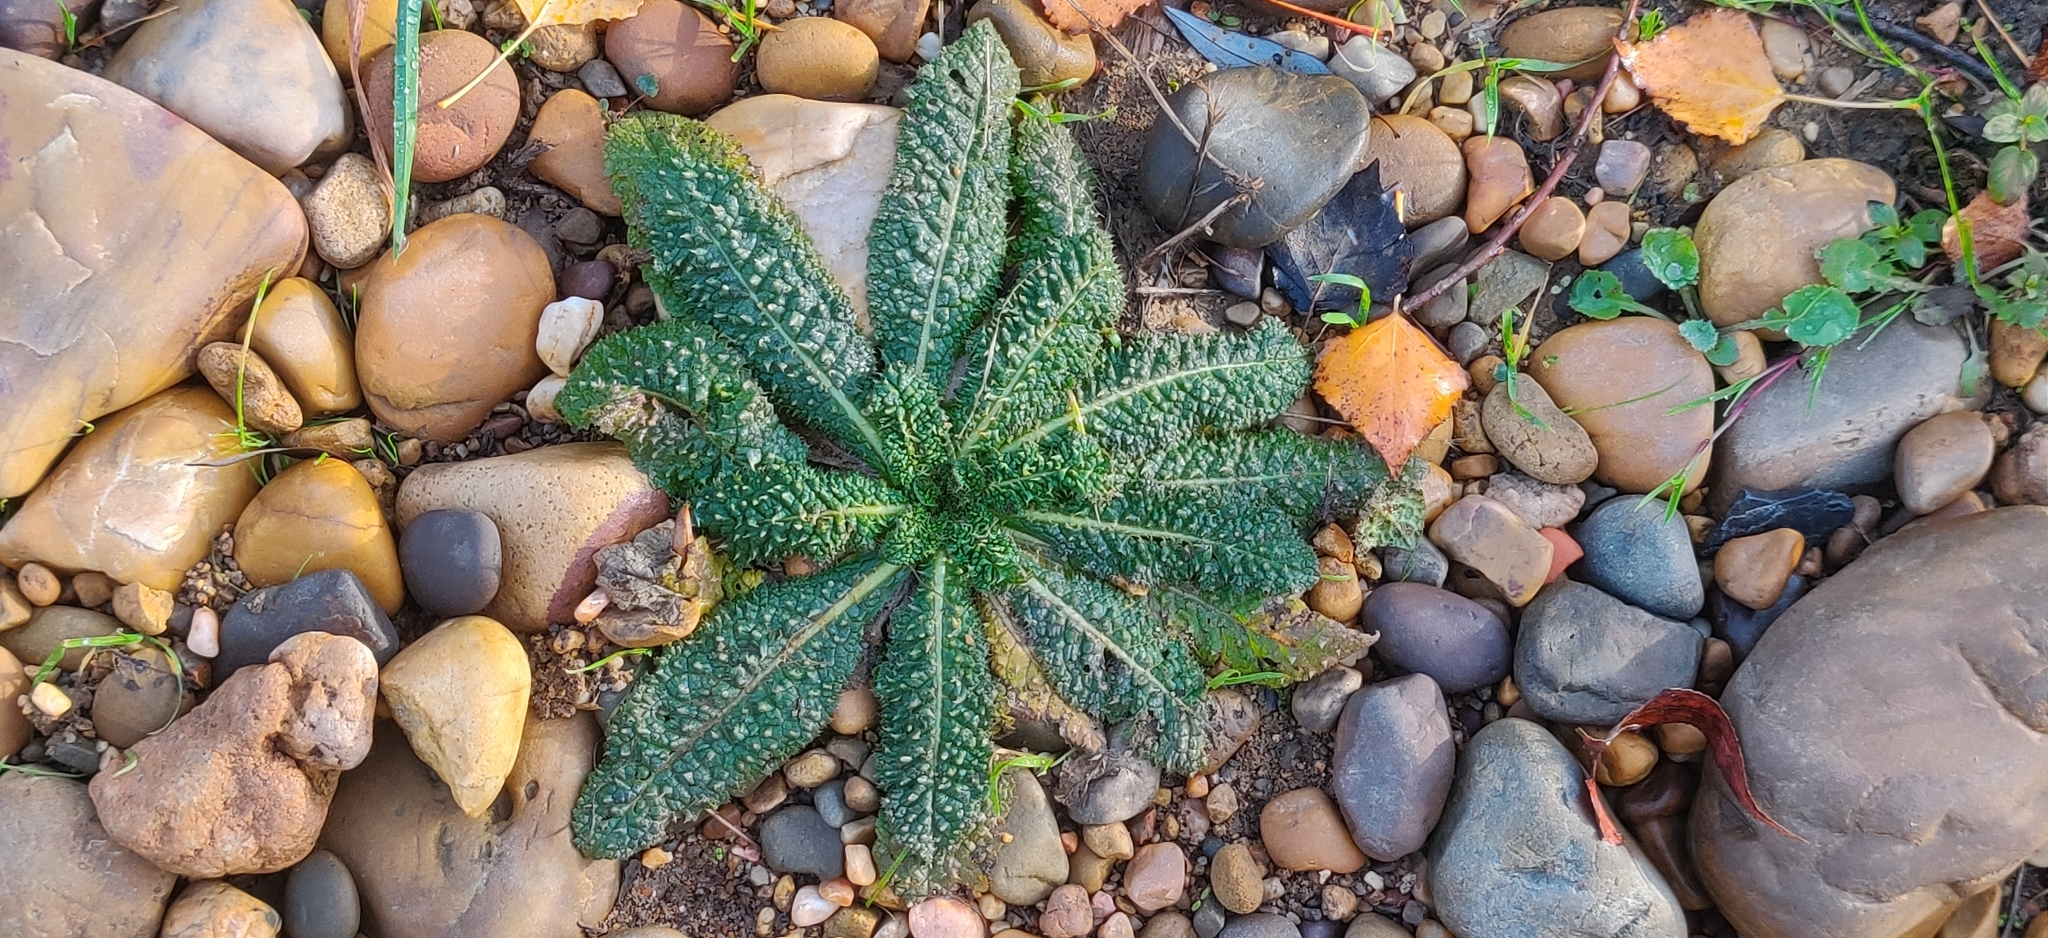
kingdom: Plantae
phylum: Tracheophyta
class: Magnoliopsida
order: Dipsacales
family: Caprifoliaceae
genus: Dipsacus
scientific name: Dipsacus fullonum
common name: Teasel
